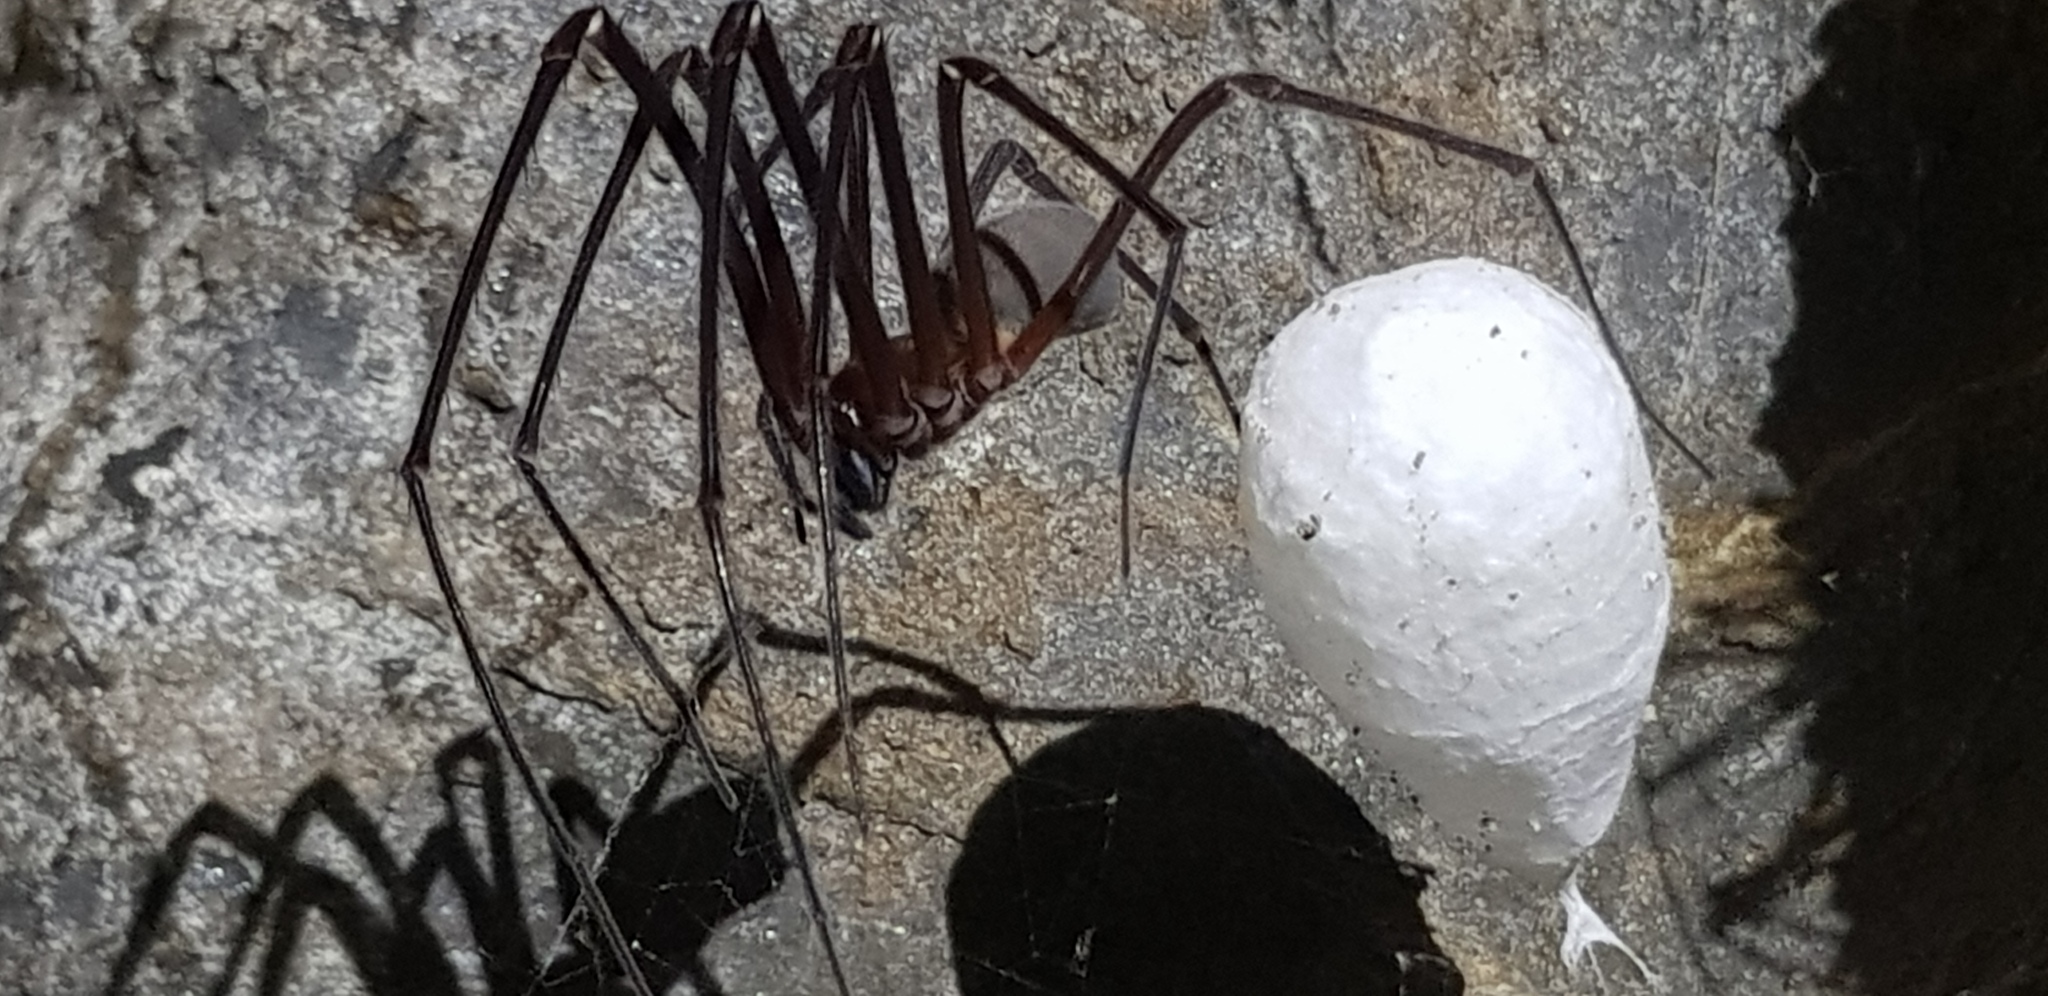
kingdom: Animalia
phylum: Arthropoda
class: Arachnida
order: Araneae
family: Gradungulidae
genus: Hickmania
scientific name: Hickmania troglodytes
